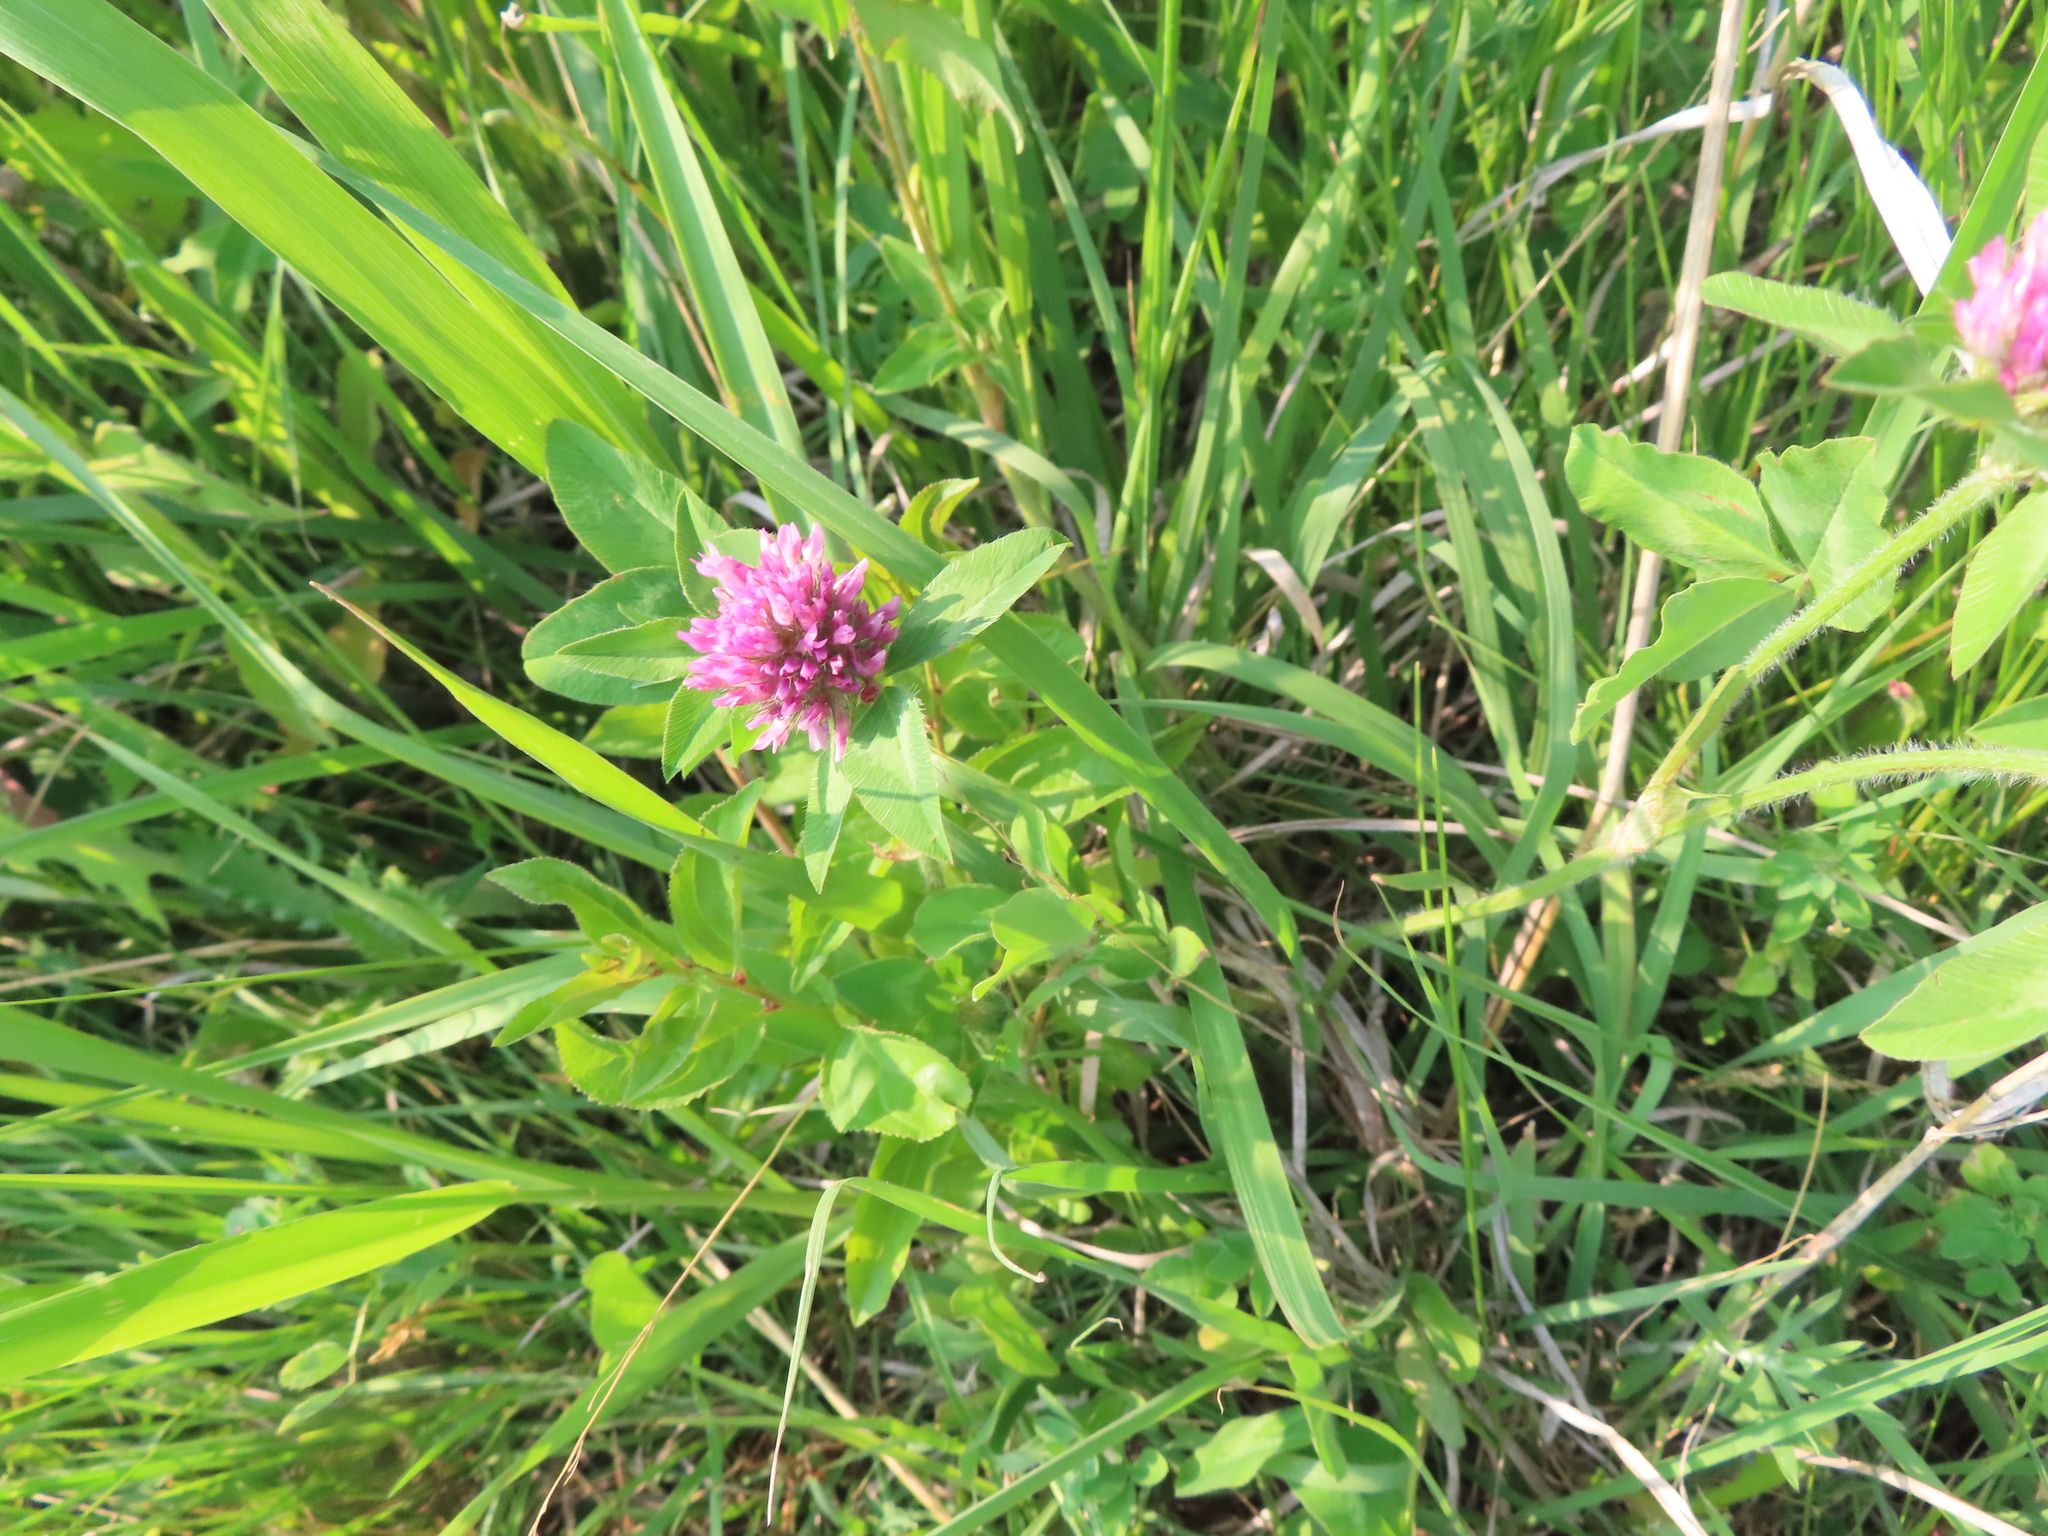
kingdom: Plantae
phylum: Tracheophyta
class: Magnoliopsida
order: Fabales
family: Fabaceae
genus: Trifolium
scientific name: Trifolium pratense
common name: Red clover
